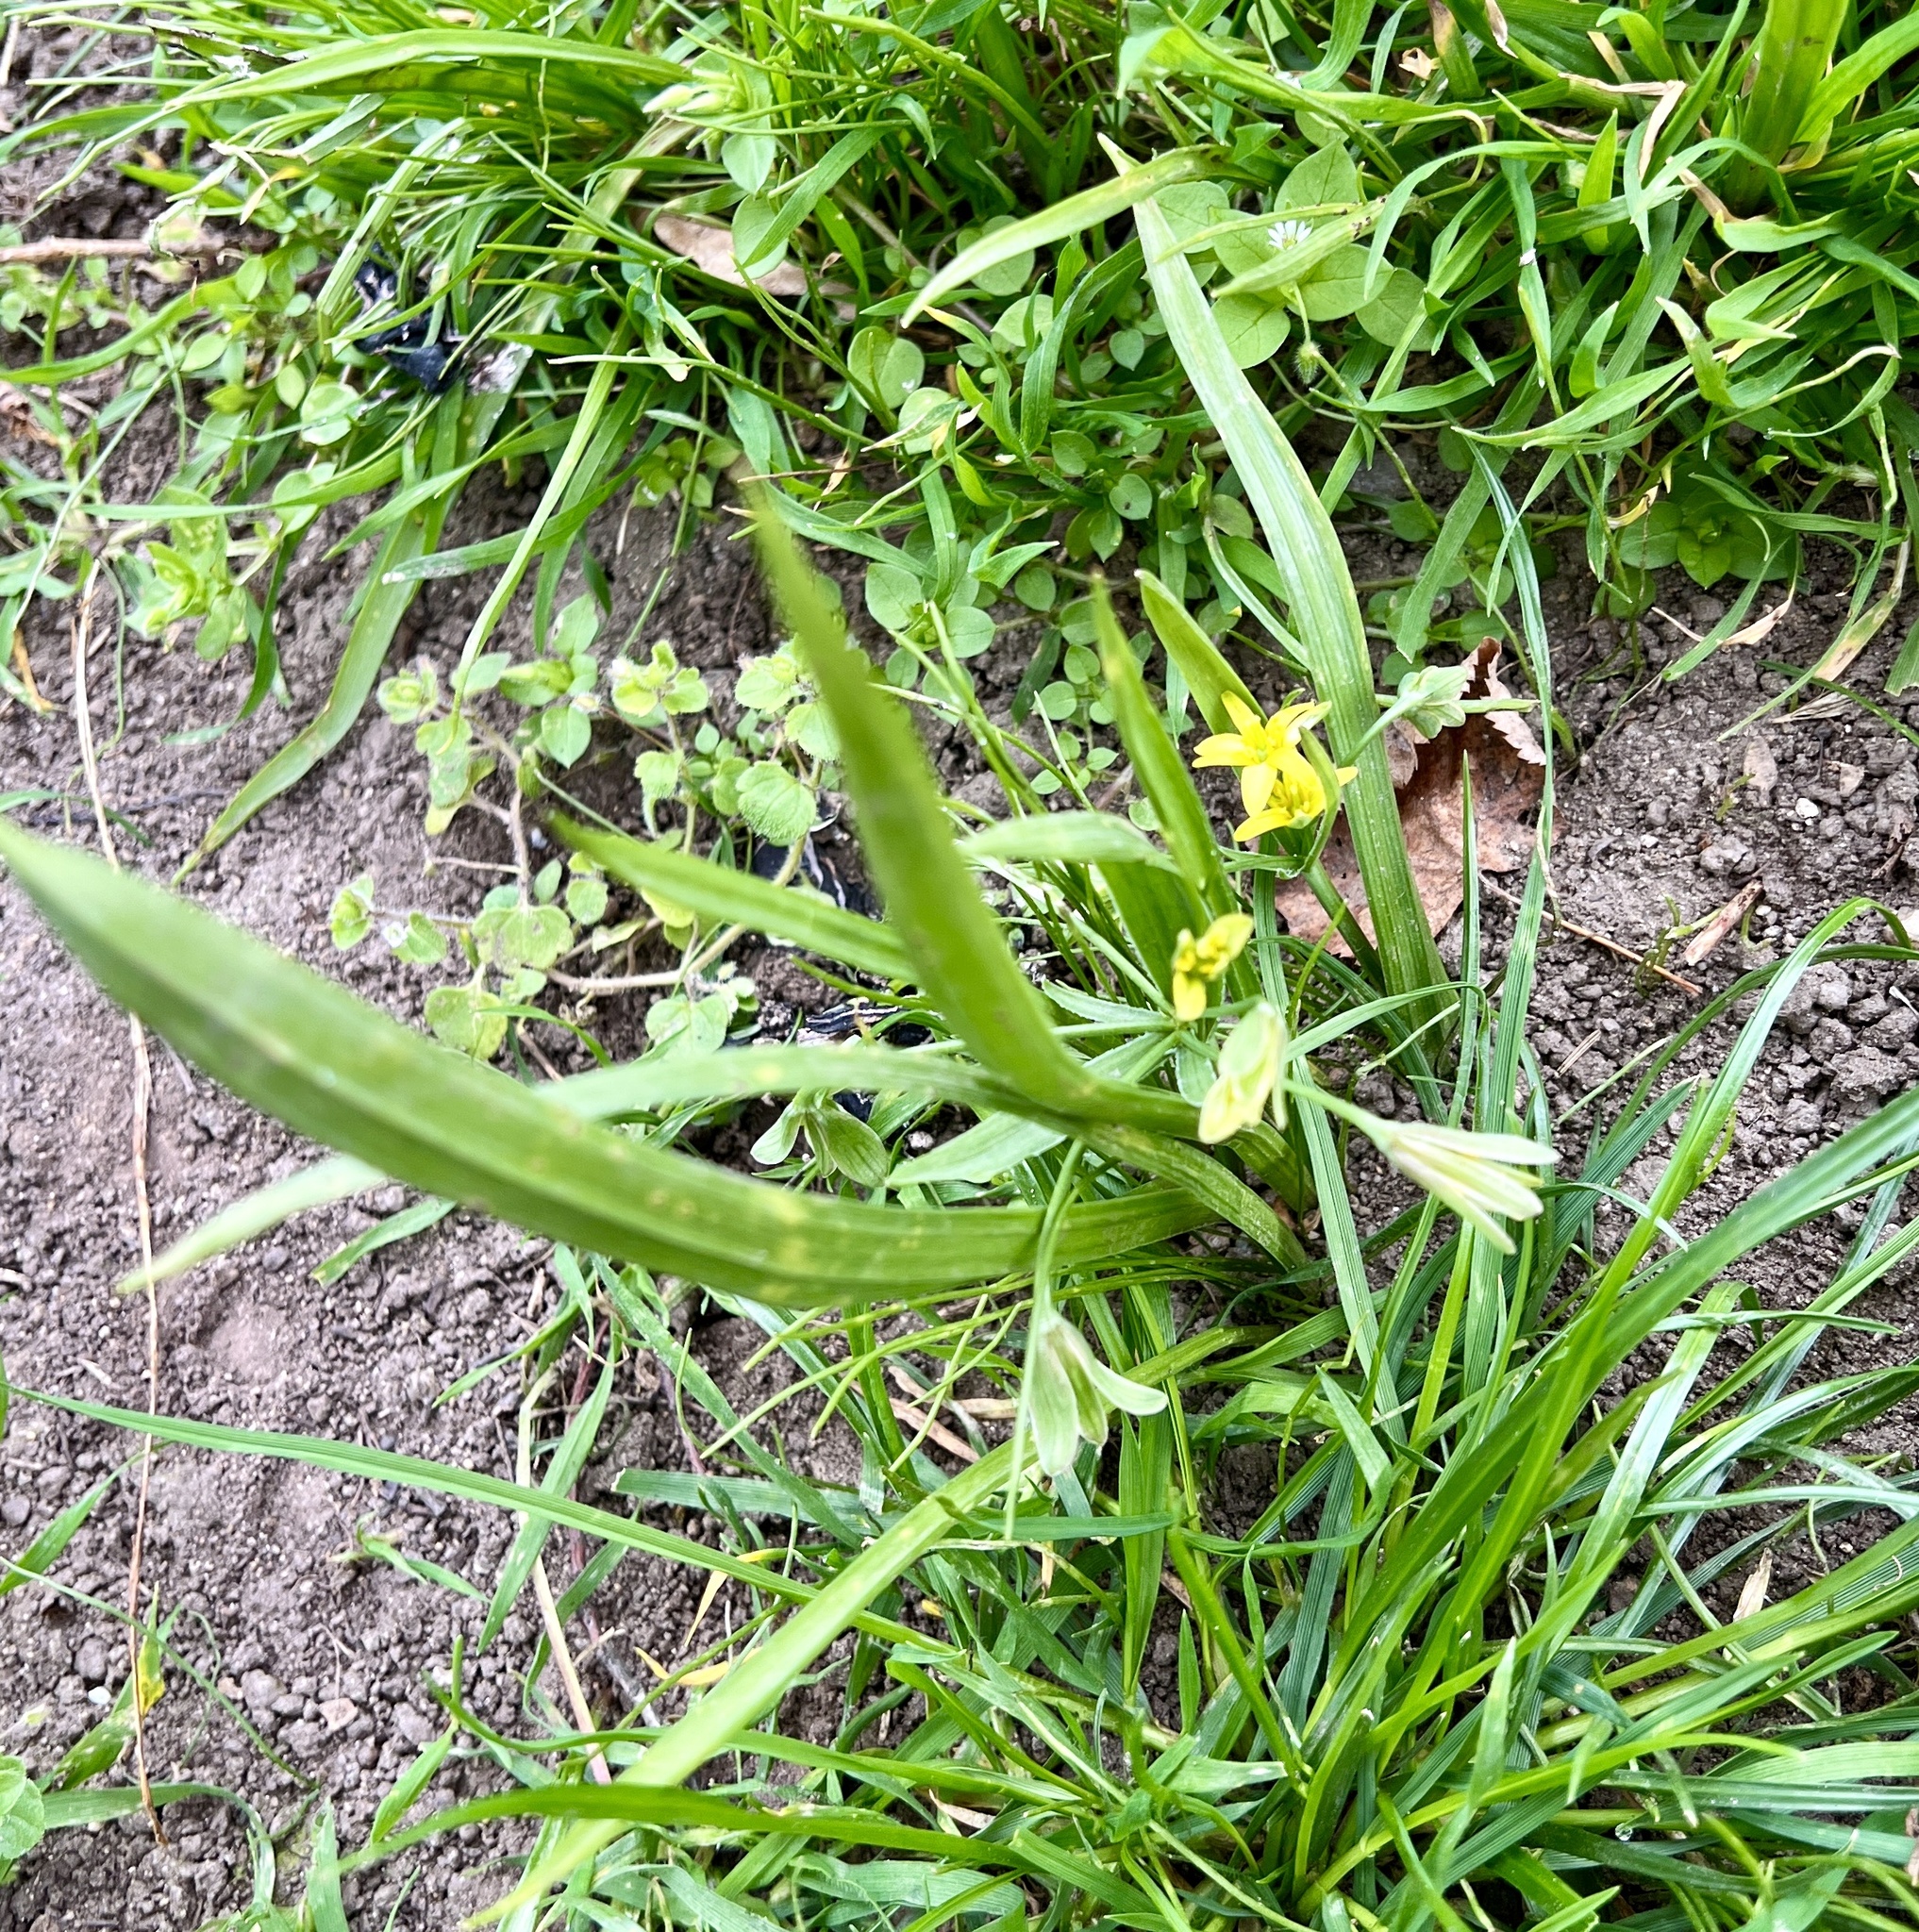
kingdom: Plantae
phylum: Tracheophyta
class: Liliopsida
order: Liliales
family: Liliaceae
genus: Gagea
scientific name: Gagea lutea
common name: Yellow star-of-bethlehem
